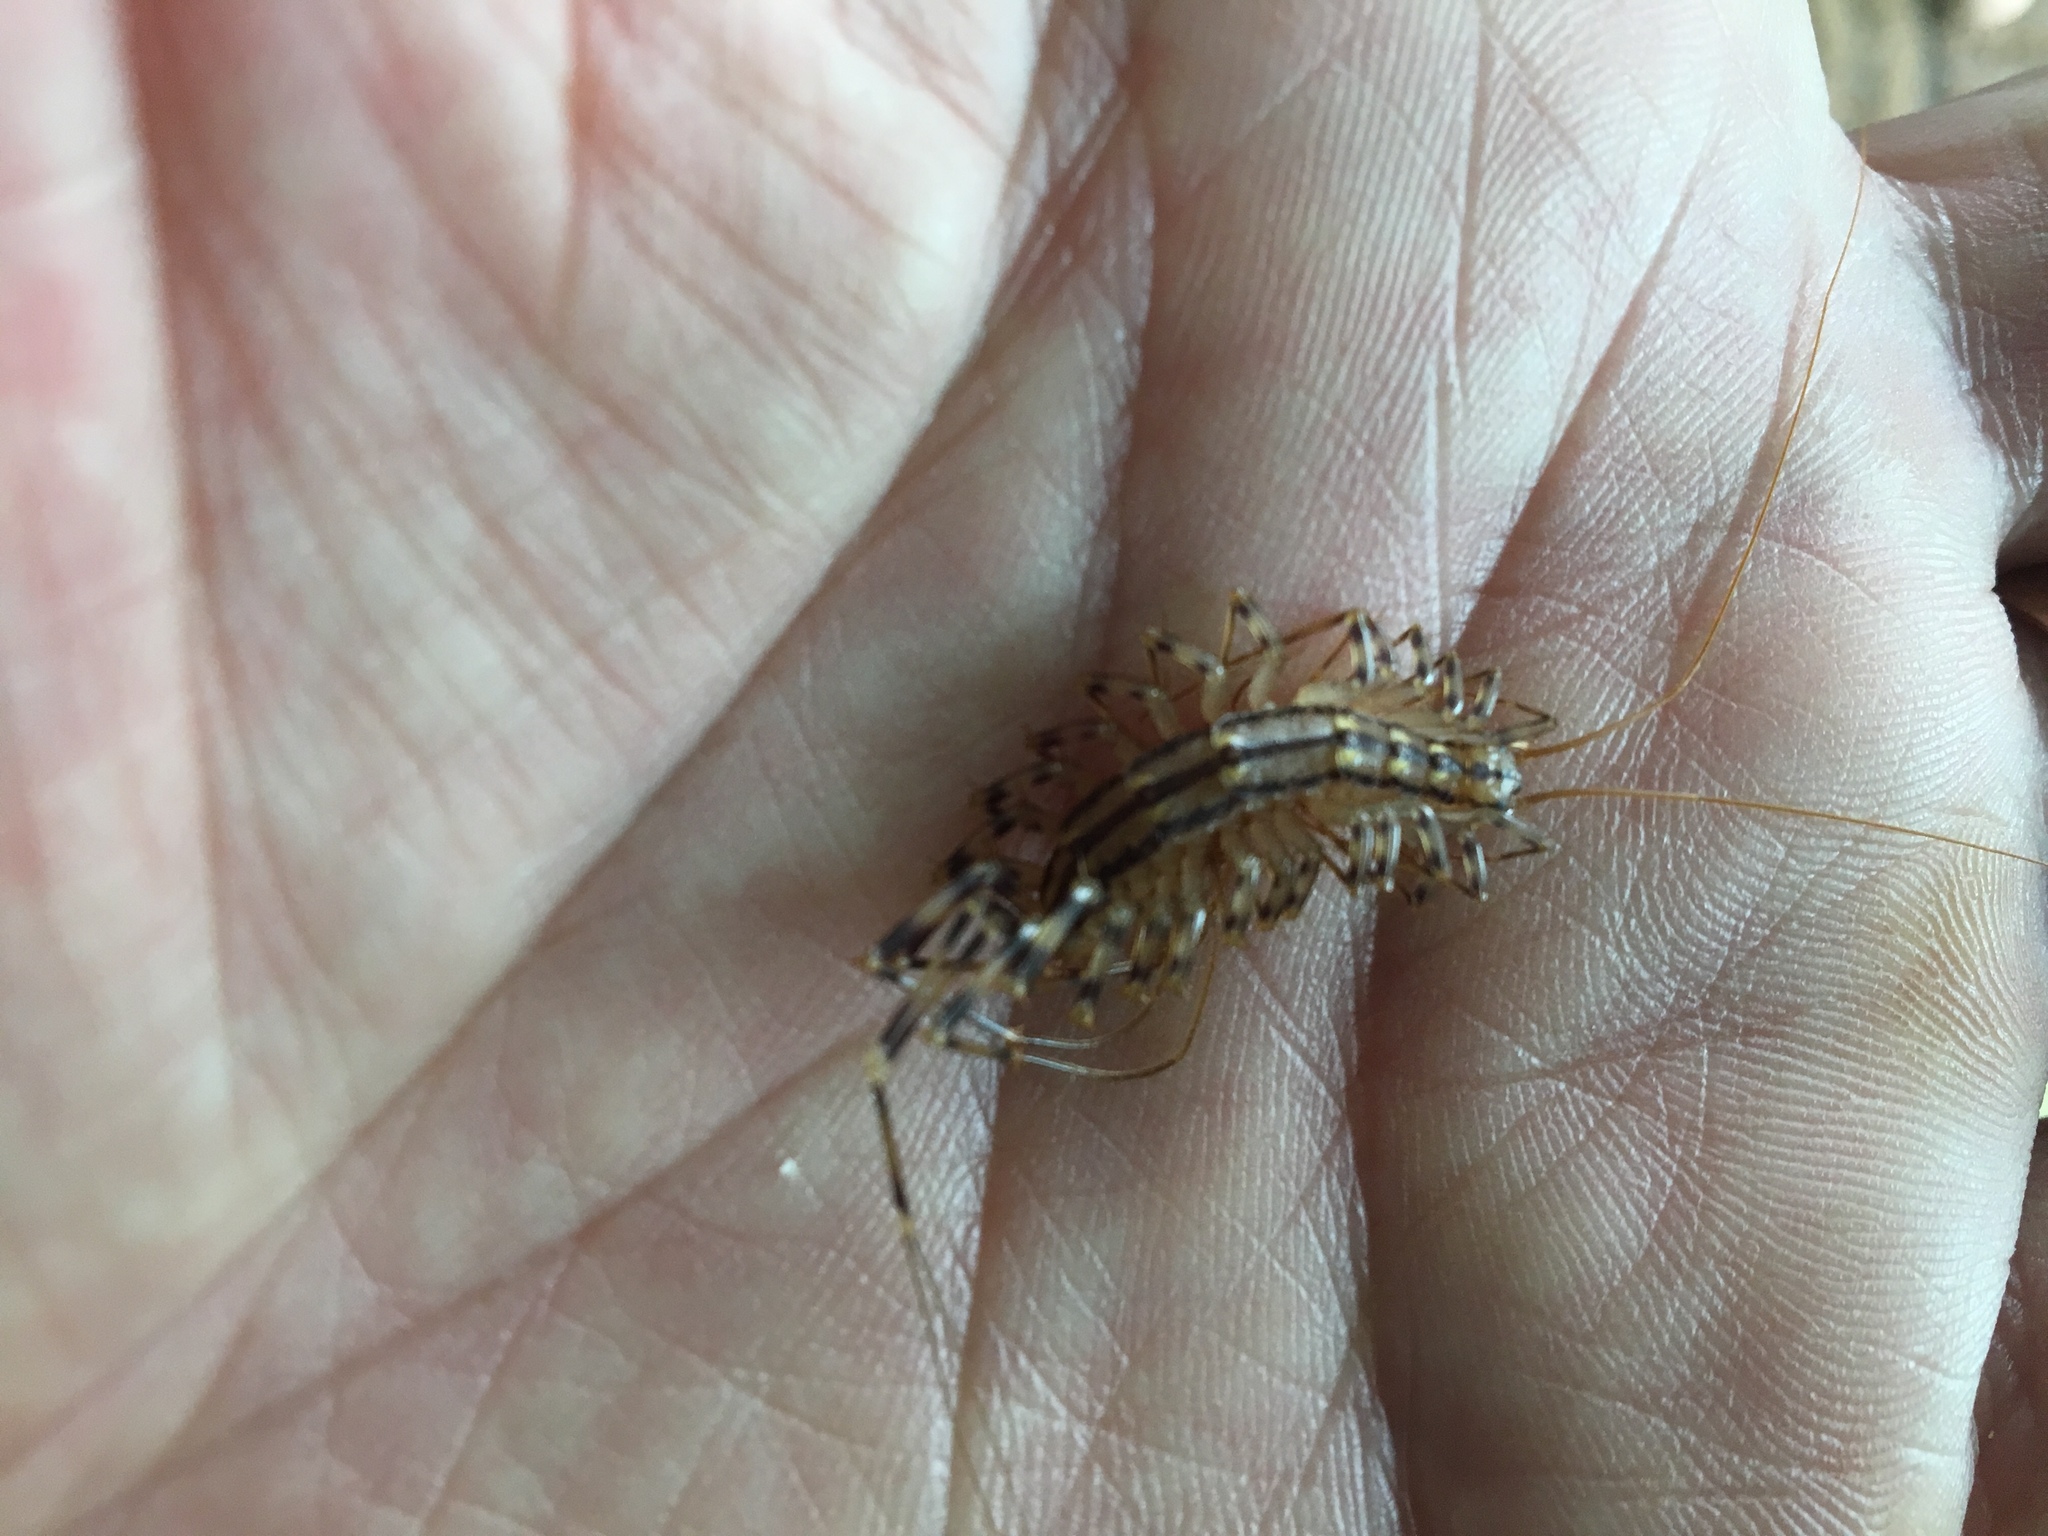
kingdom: Animalia
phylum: Arthropoda
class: Chilopoda
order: Scutigeromorpha
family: Scutigeridae
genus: Scutigera
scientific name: Scutigera coleoptrata
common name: House centipede
